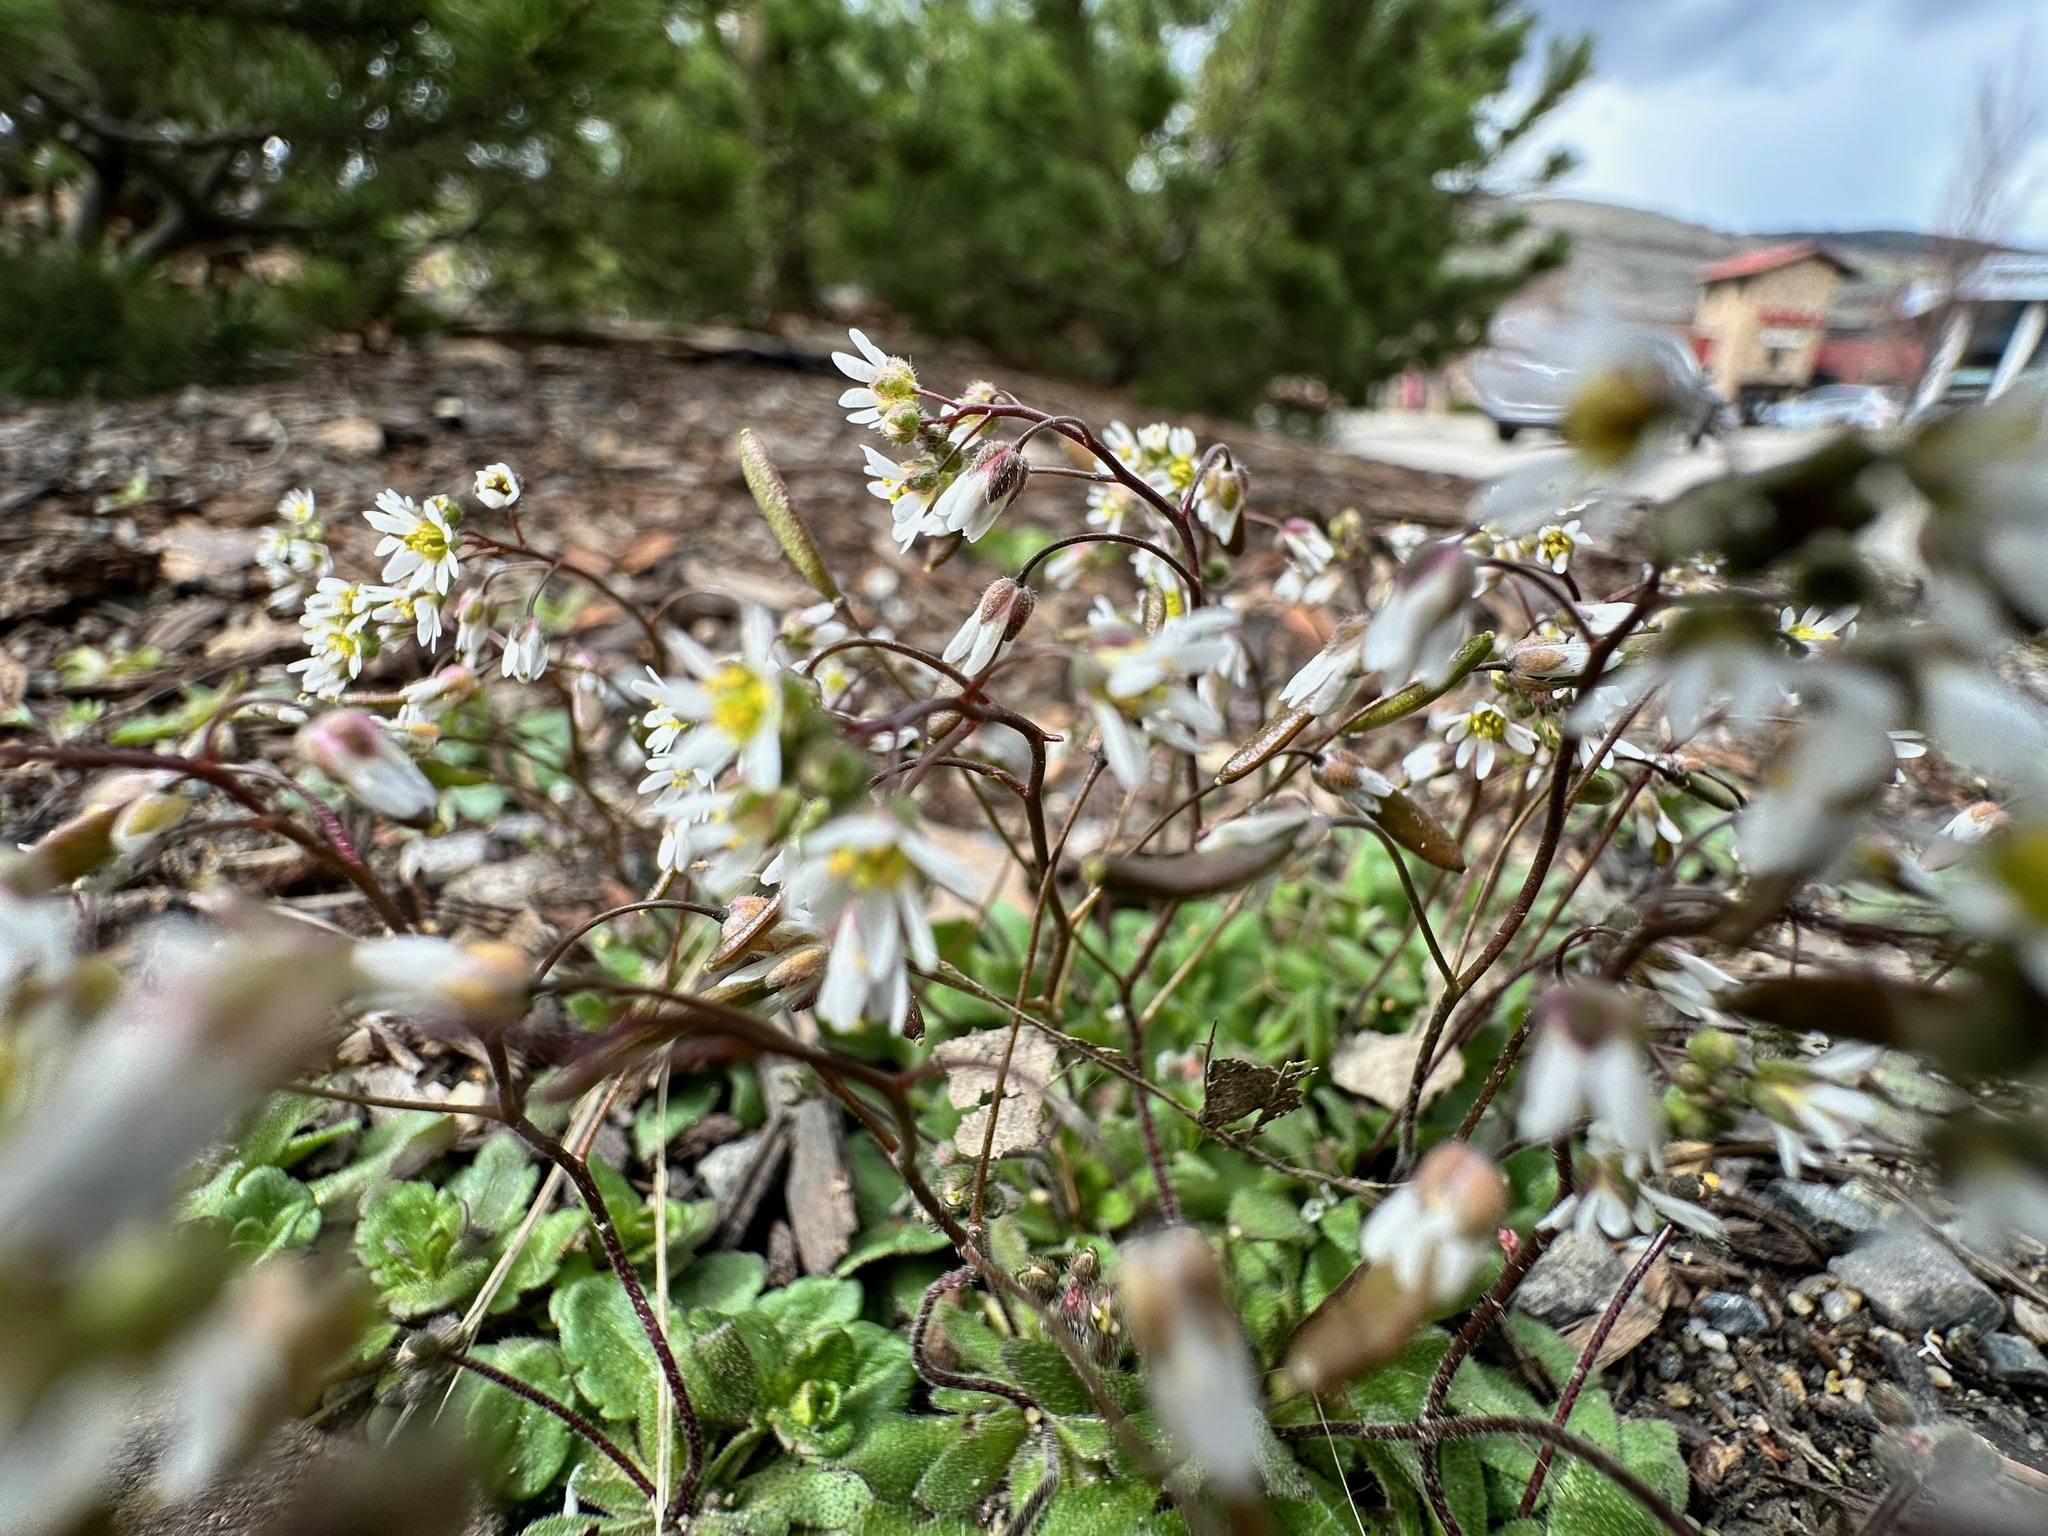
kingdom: Plantae
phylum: Tracheophyta
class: Magnoliopsida
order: Brassicales
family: Brassicaceae
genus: Draba
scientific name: Draba verna
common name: Spring draba
